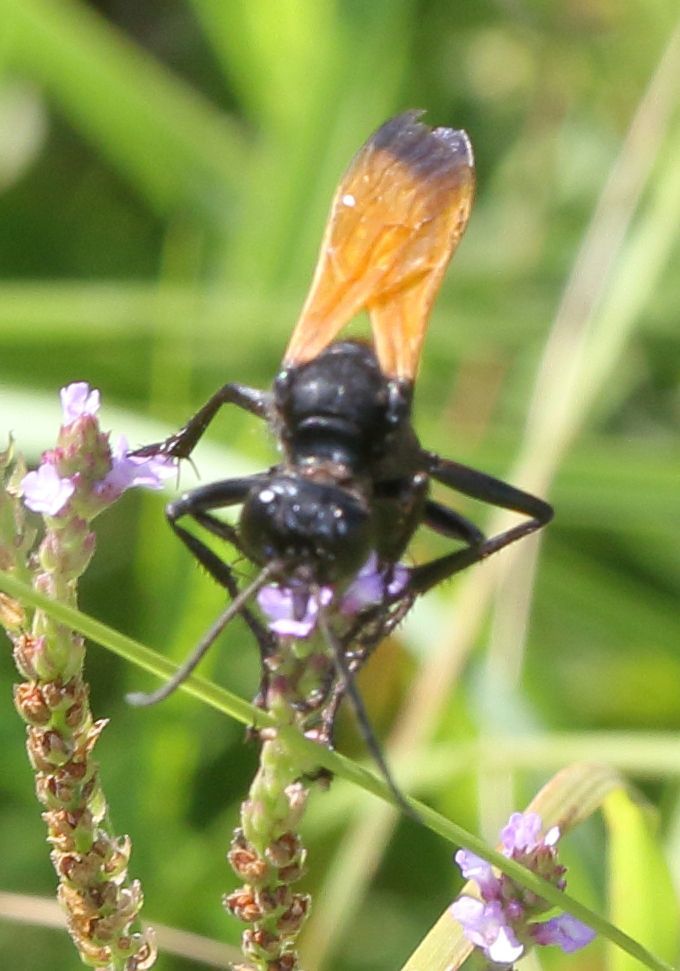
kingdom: Animalia
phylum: Arthropoda
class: Insecta
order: Hymenoptera
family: Sphecidae
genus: Sphex
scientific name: Sphex
